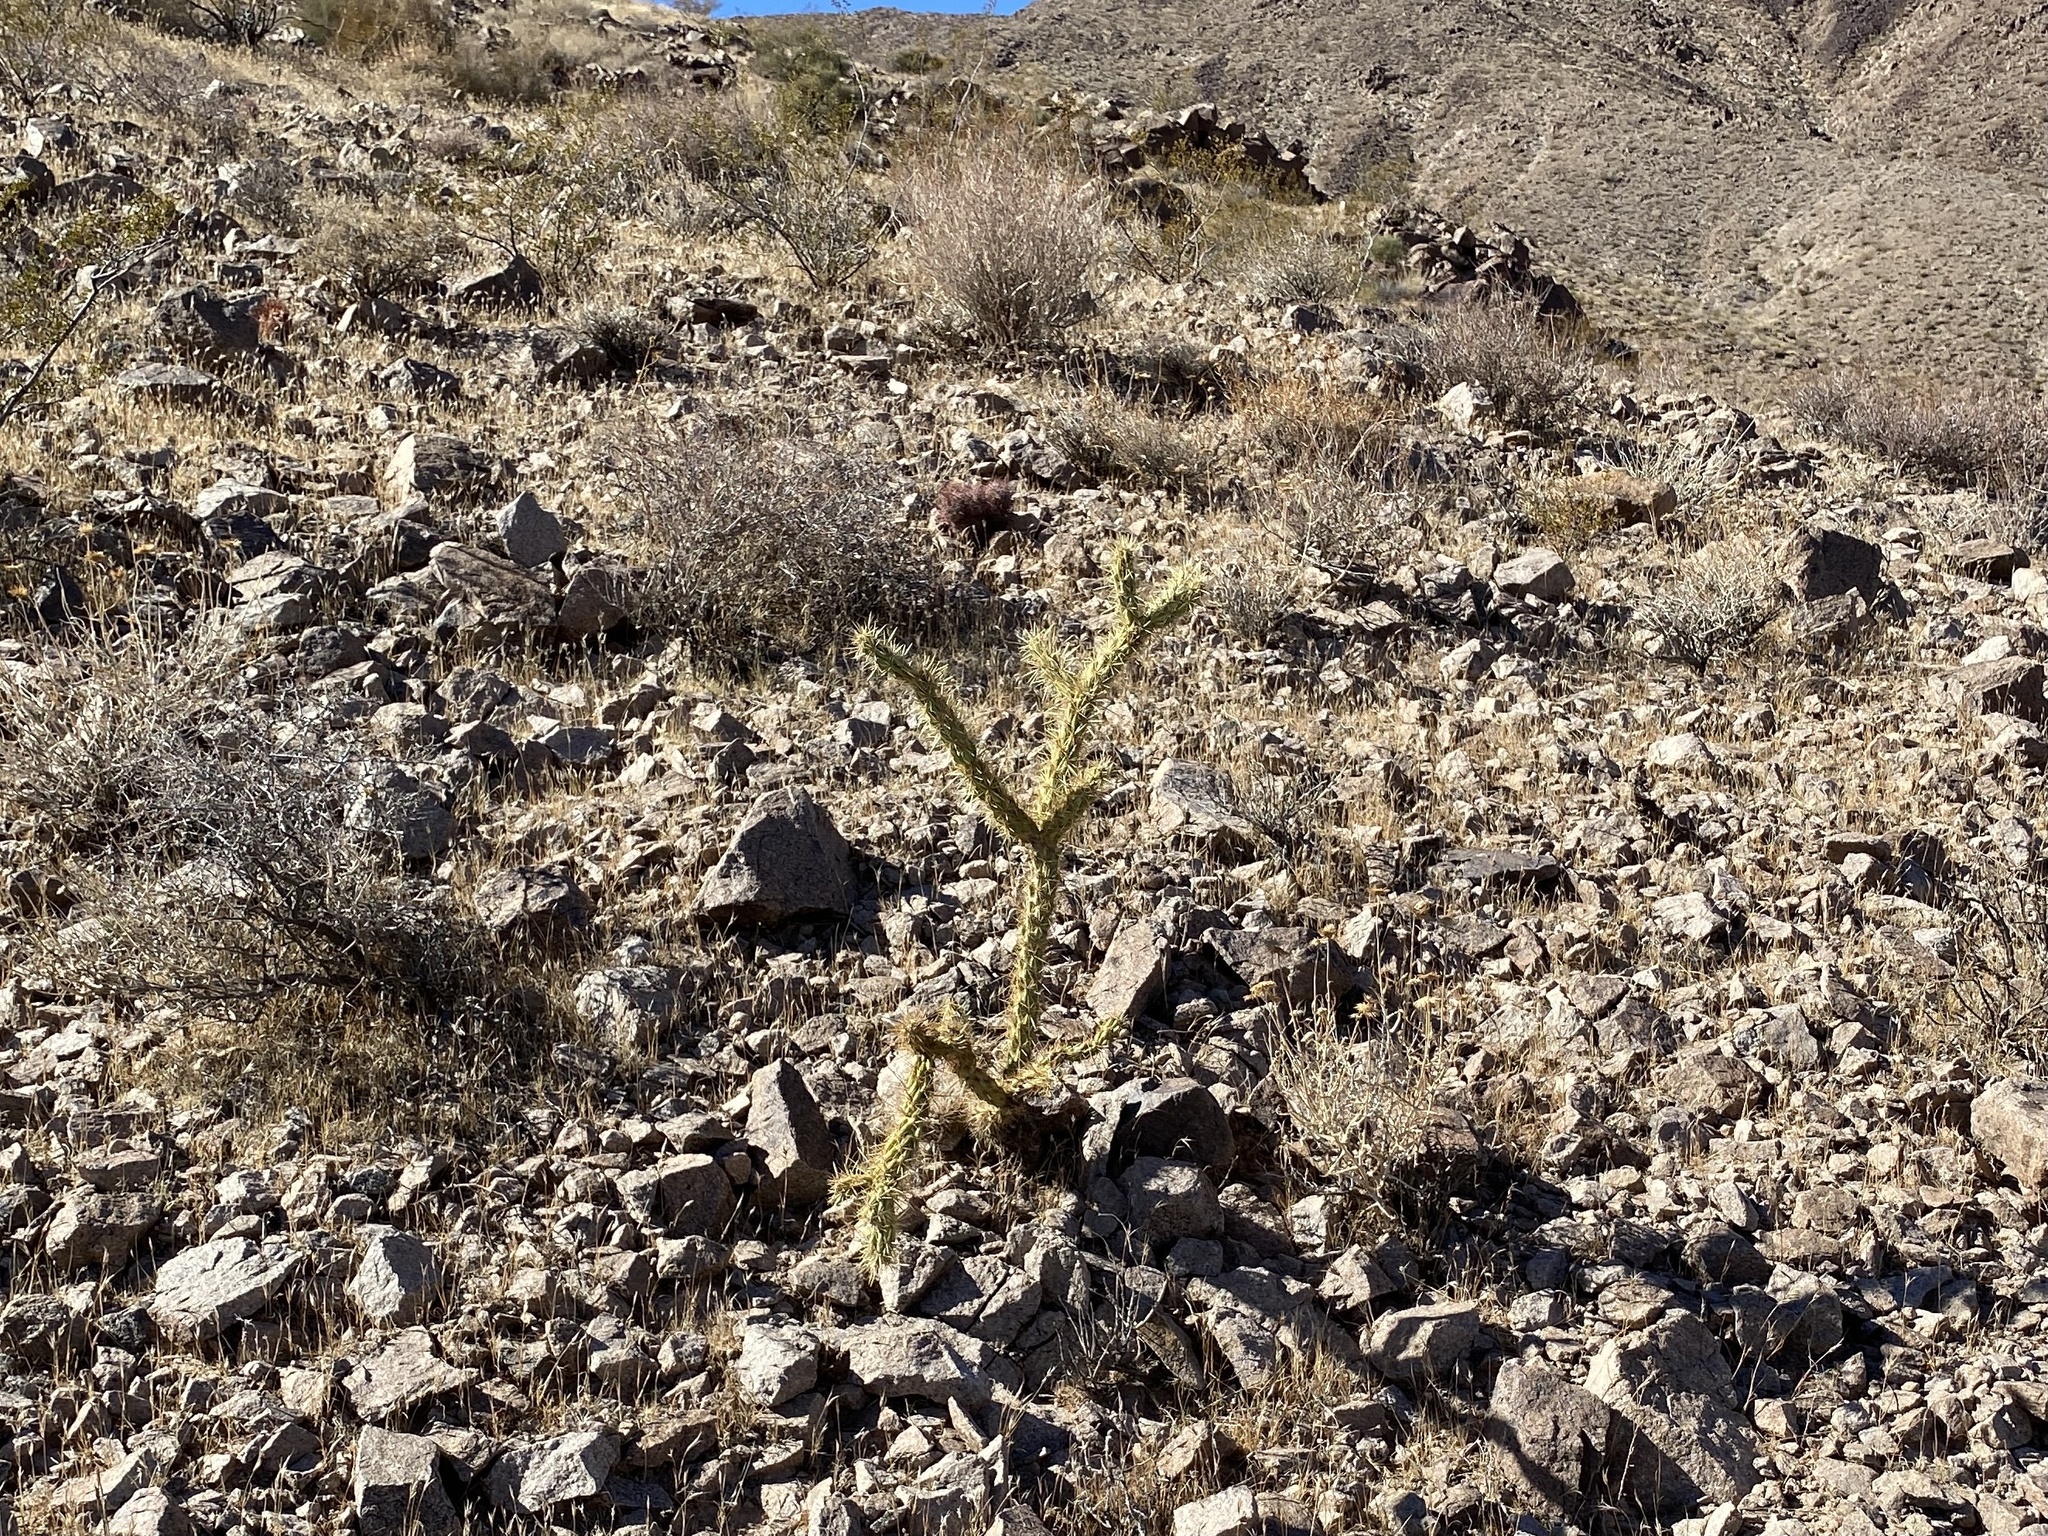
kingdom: Plantae
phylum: Tracheophyta
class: Magnoliopsida
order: Caryophyllales
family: Cactaceae
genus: Cylindropuntia
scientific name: Cylindropuntia acanthocarpa
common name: Buckhorn cholla
